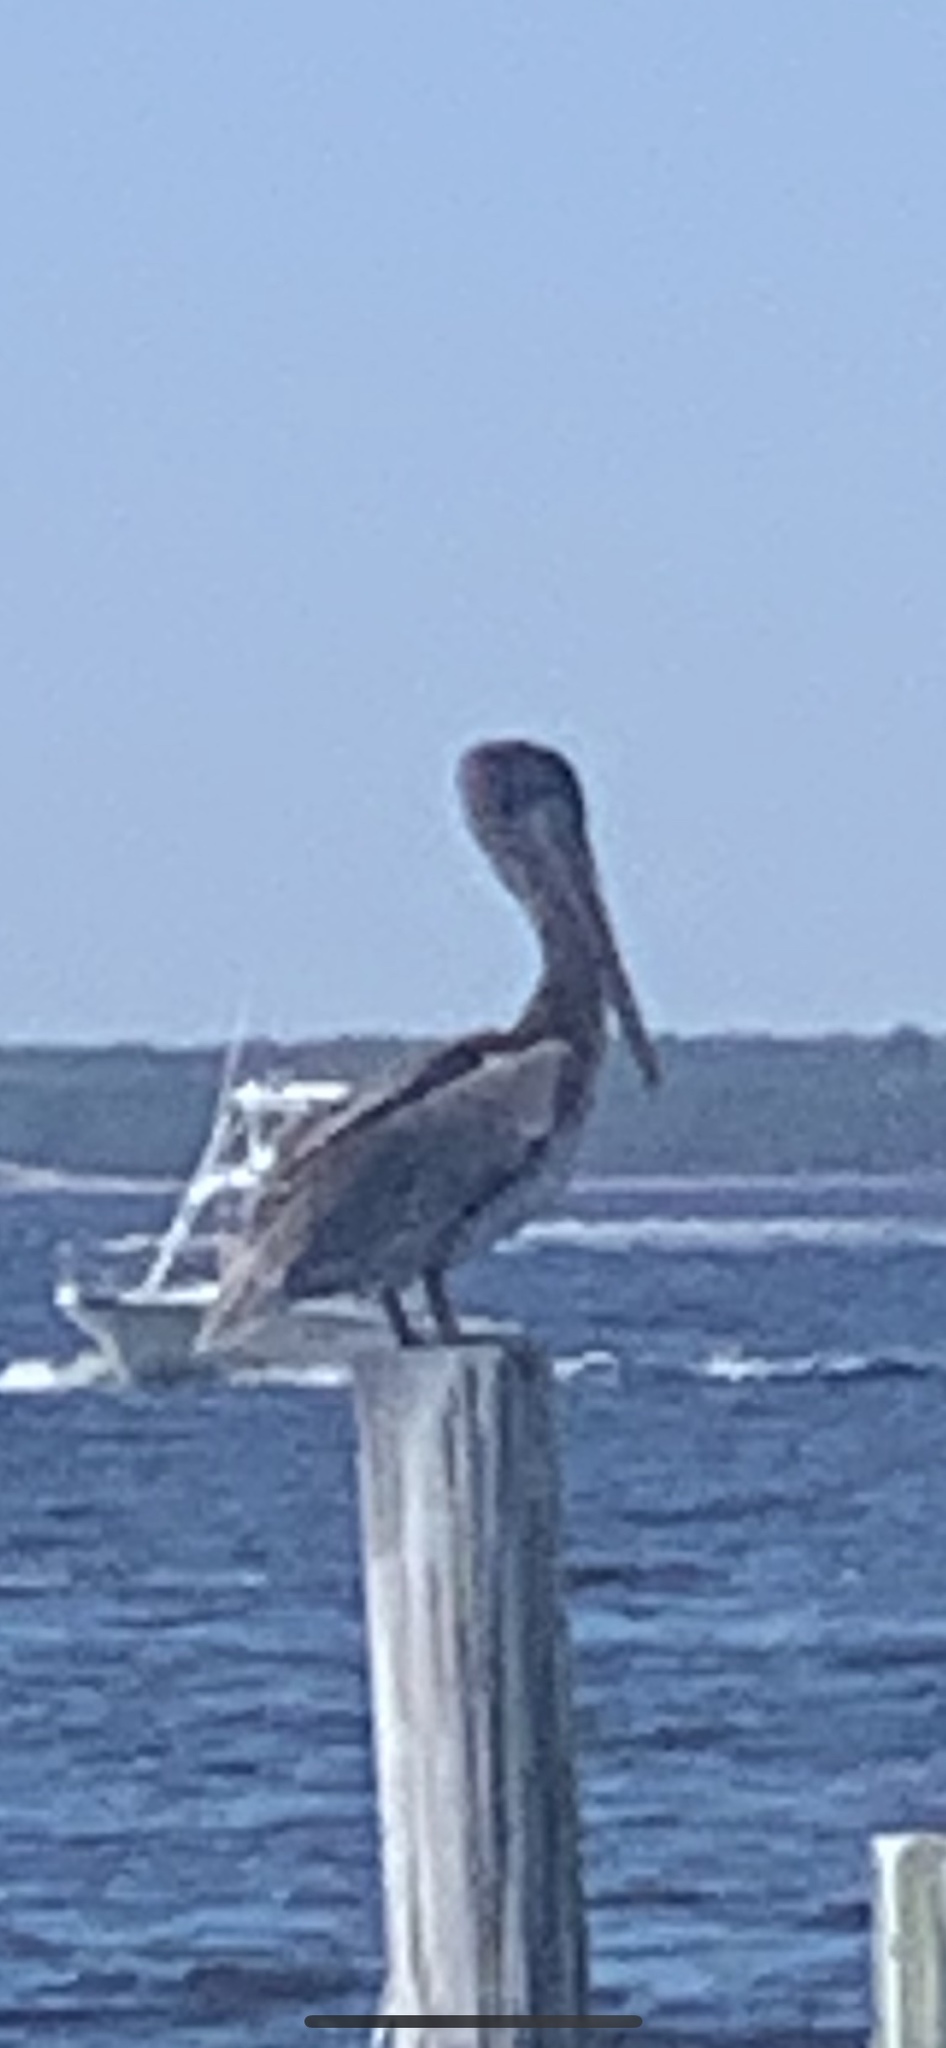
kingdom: Animalia
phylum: Chordata
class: Aves
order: Pelecaniformes
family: Pelecanidae
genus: Pelecanus
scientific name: Pelecanus occidentalis
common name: Brown pelican
